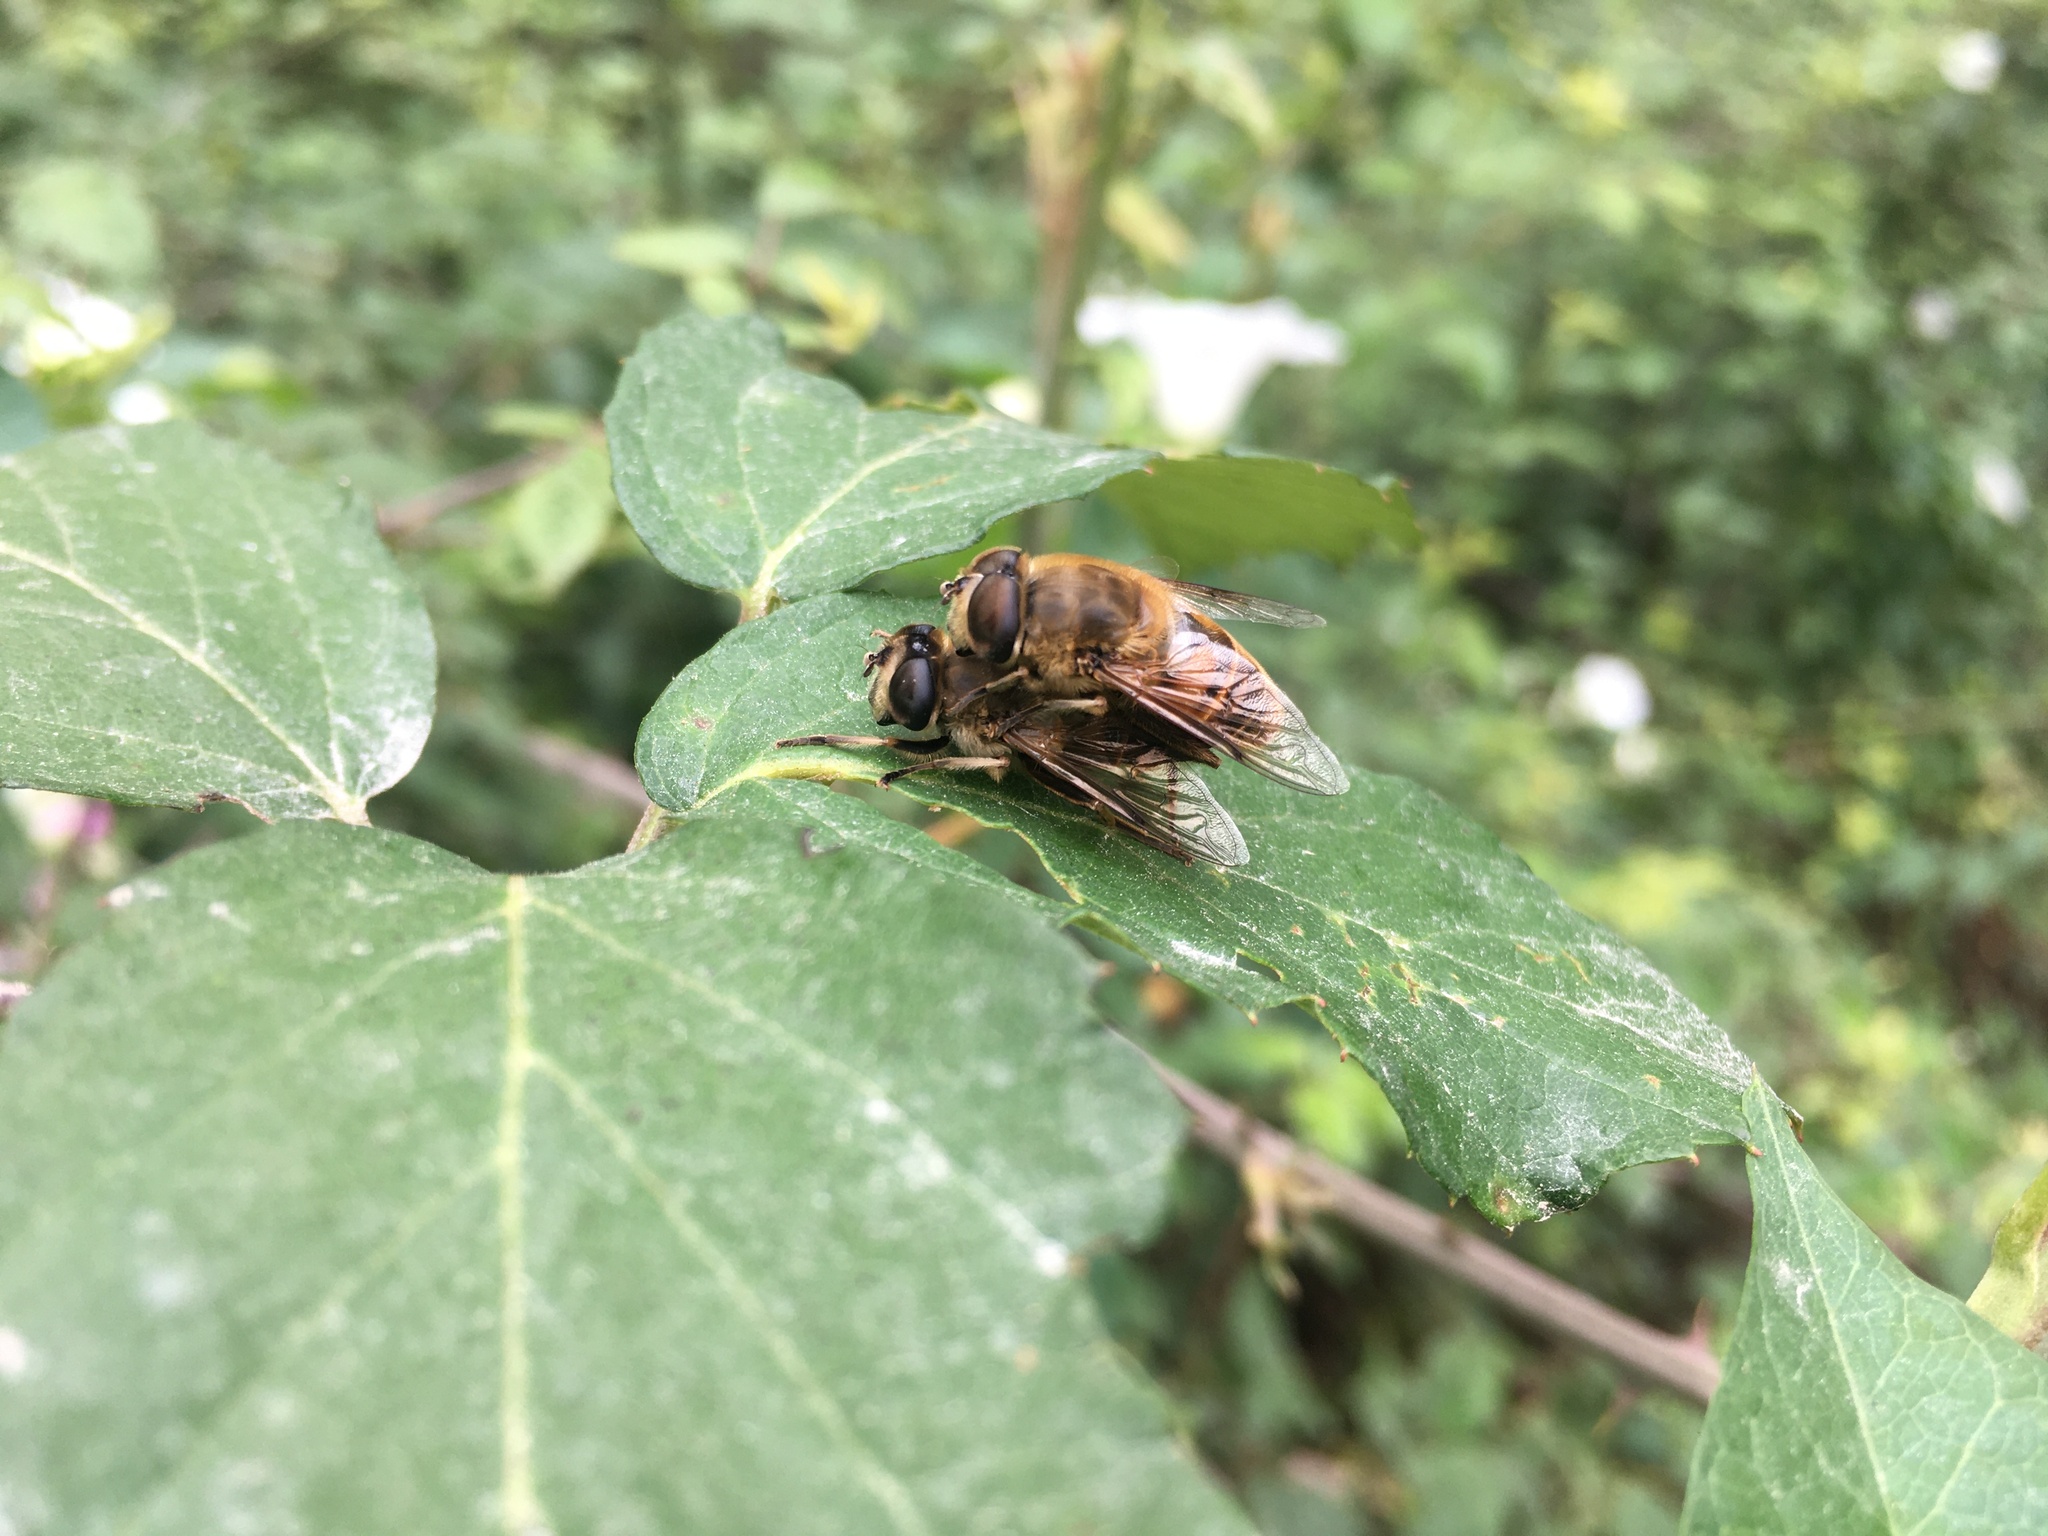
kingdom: Animalia
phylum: Arthropoda
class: Insecta
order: Diptera
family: Syrphidae
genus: Eristalis
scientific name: Eristalis tenax
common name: Drone fly
